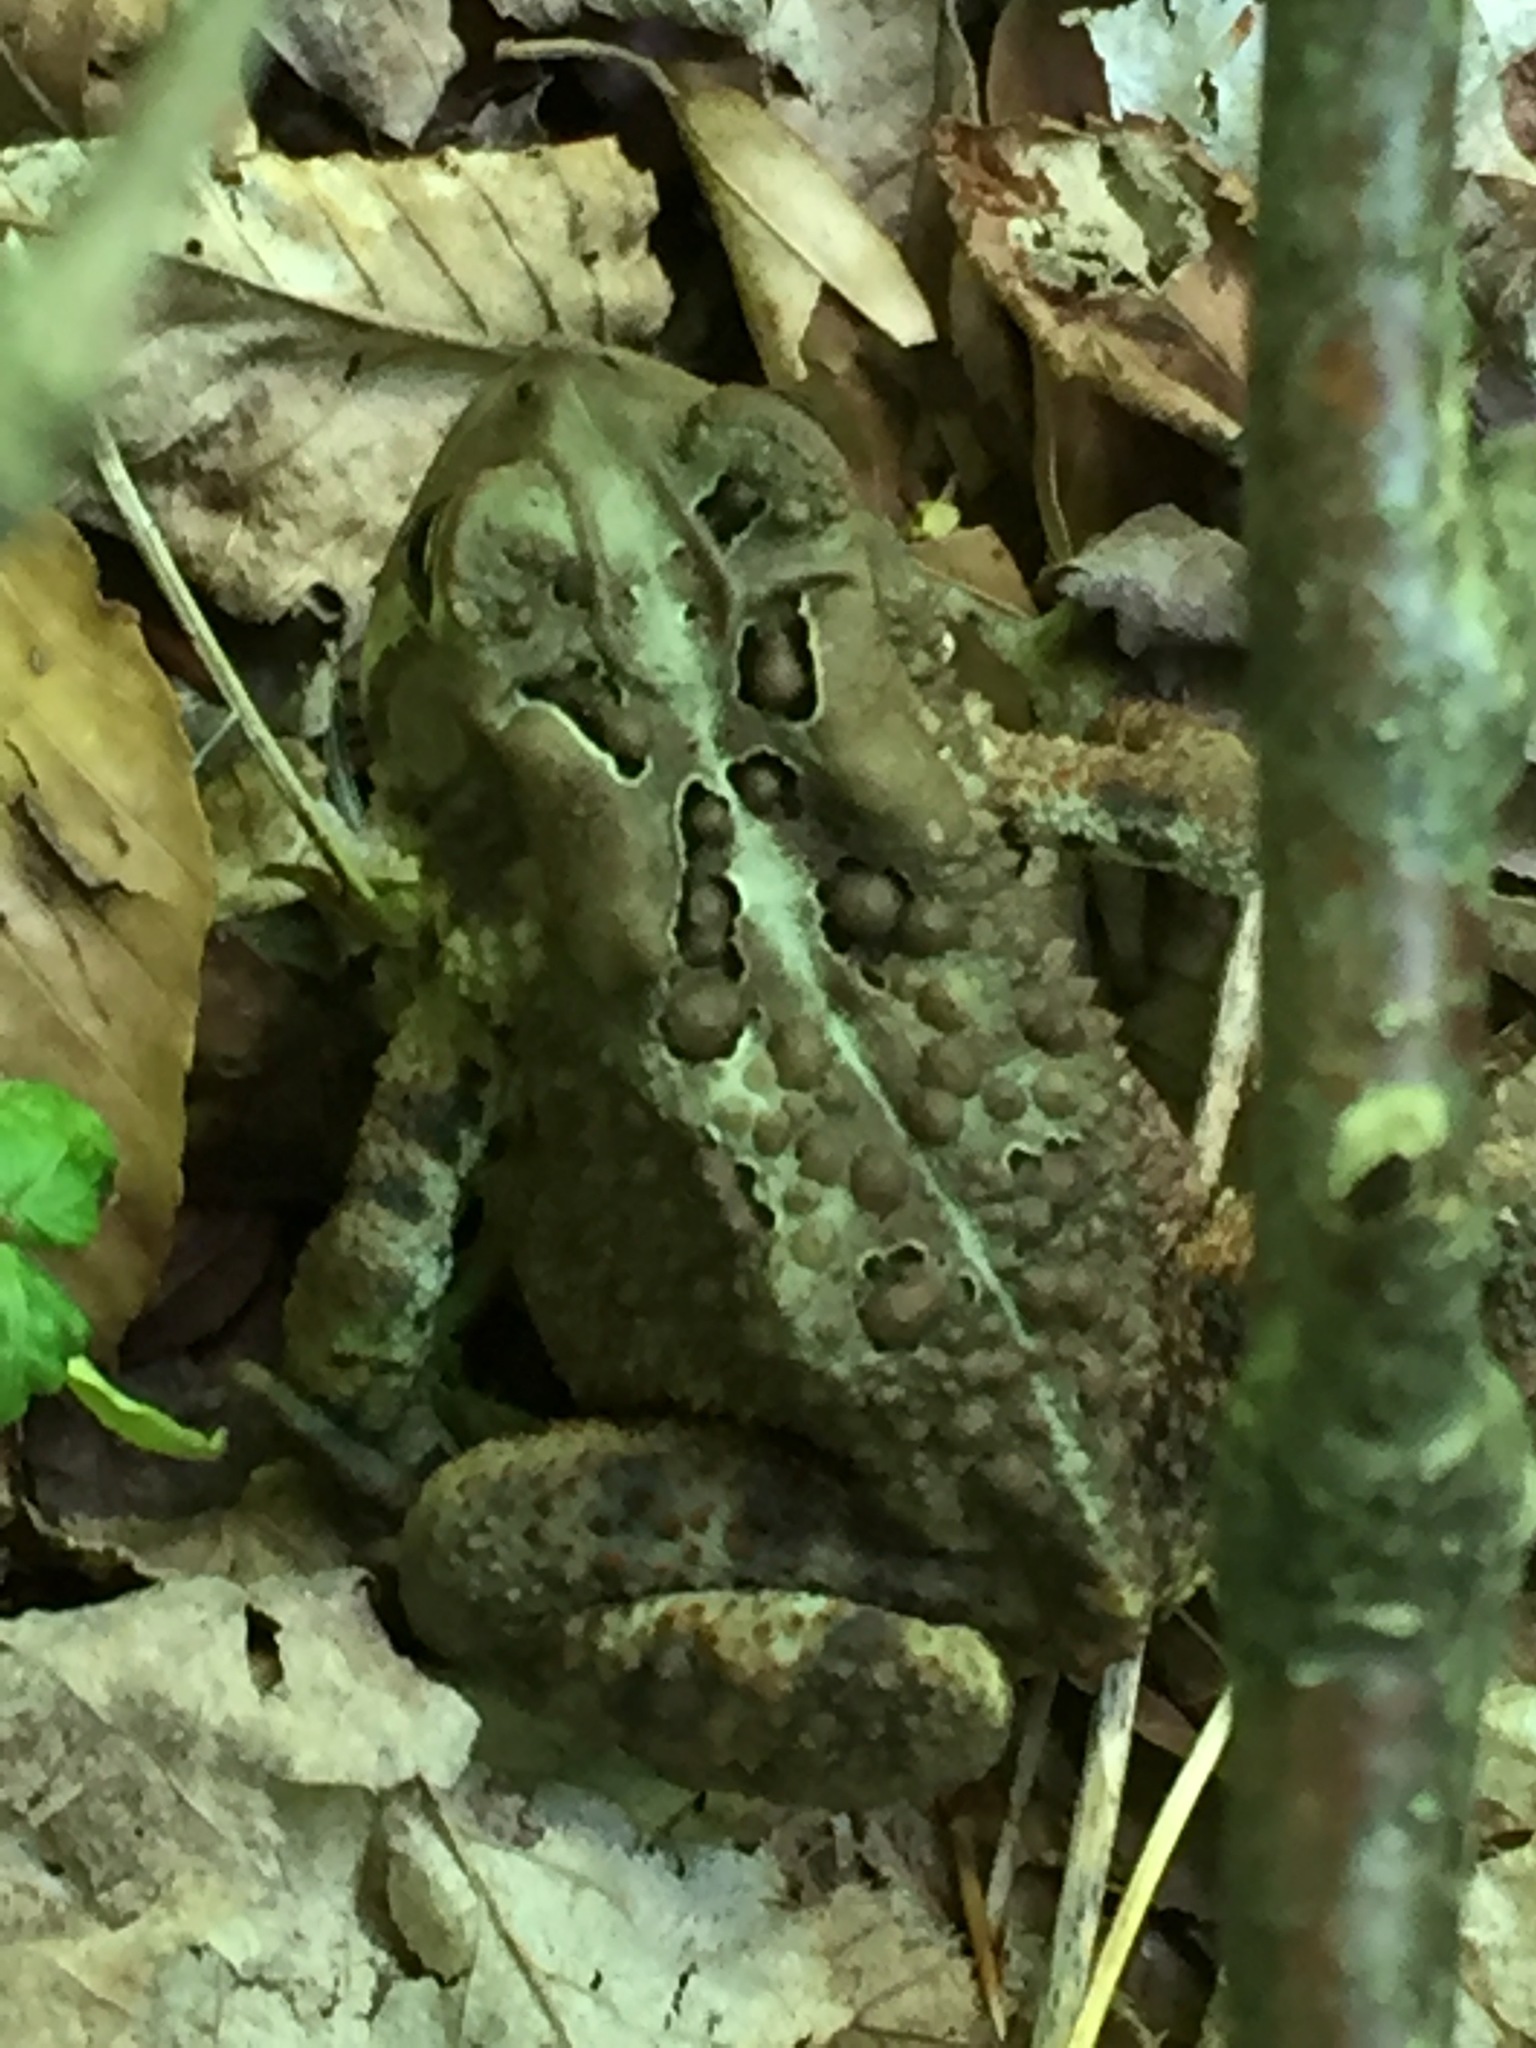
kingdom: Animalia
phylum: Chordata
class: Amphibia
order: Anura
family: Bufonidae
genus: Anaxyrus
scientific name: Anaxyrus americanus
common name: American toad
